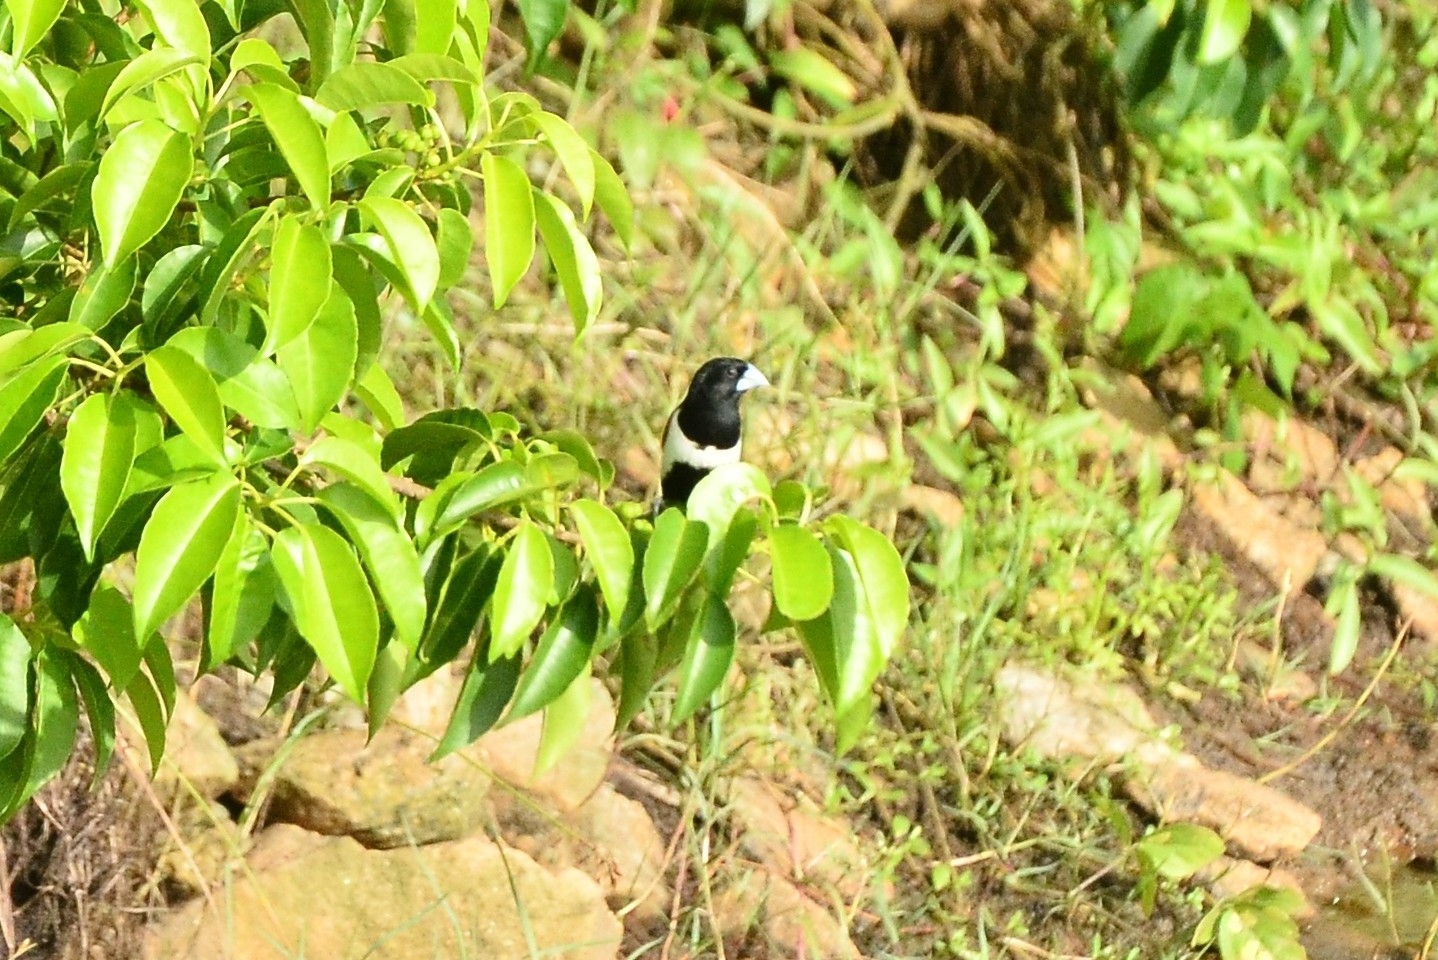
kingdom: Animalia
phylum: Chordata
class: Aves
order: Passeriformes
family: Estrildidae
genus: Lonchura
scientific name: Lonchura malacca
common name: Tricolored munia
